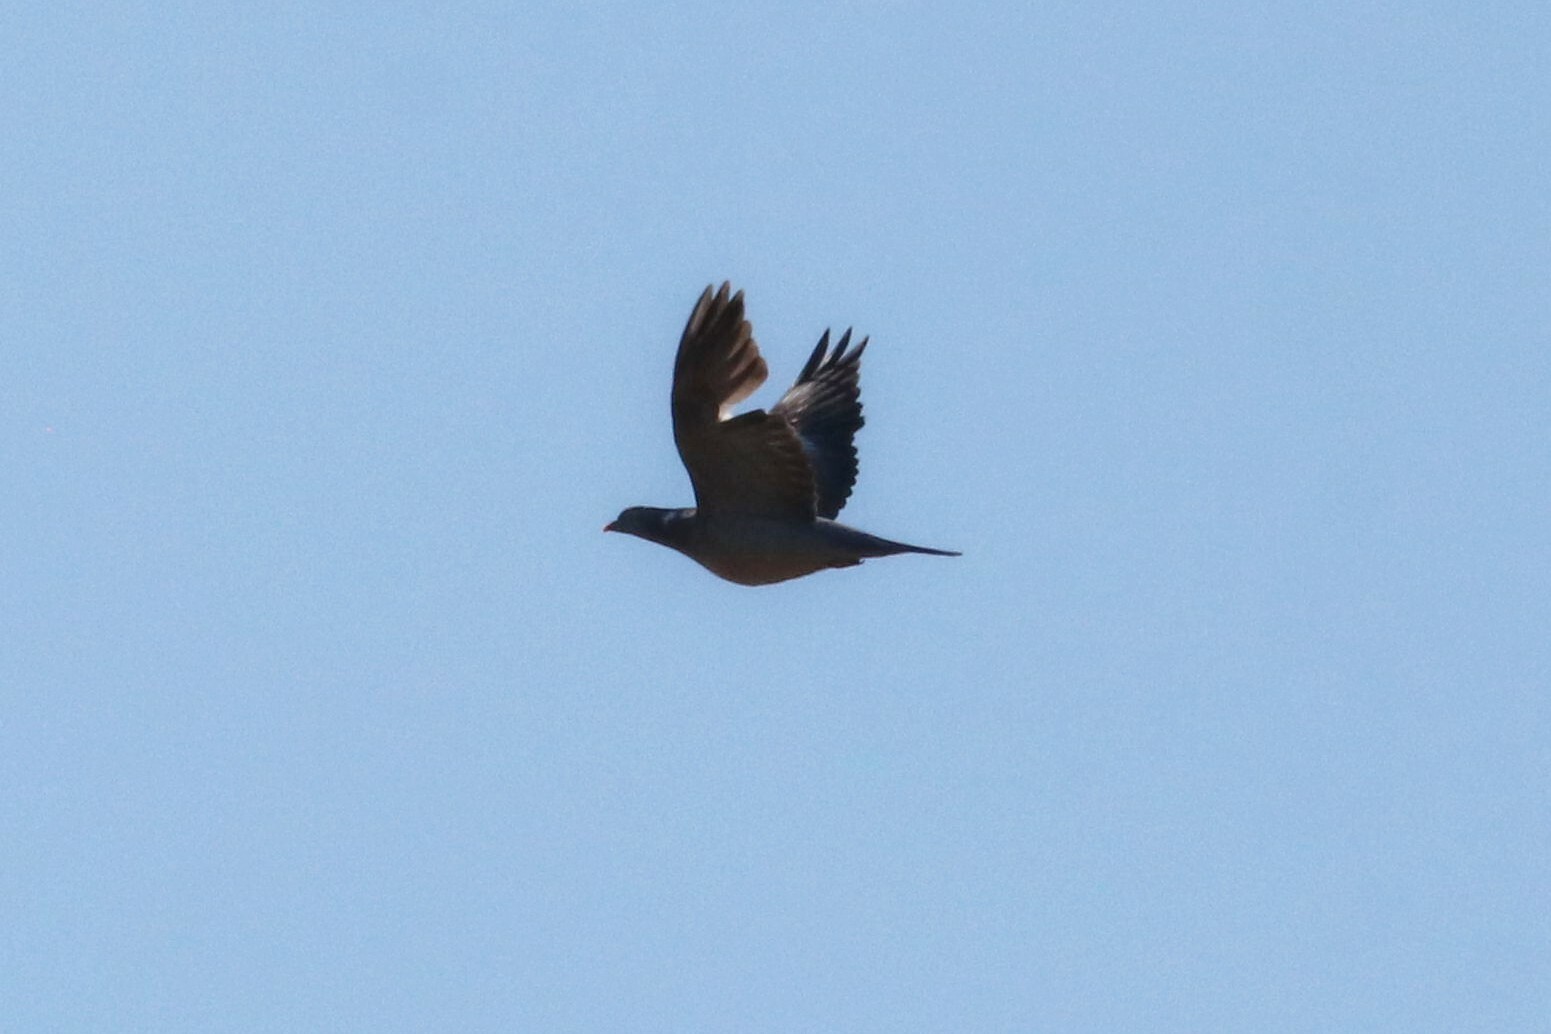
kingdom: Animalia
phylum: Chordata
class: Aves
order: Columbiformes
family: Columbidae
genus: Columba
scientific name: Columba palumbus
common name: Common wood pigeon
